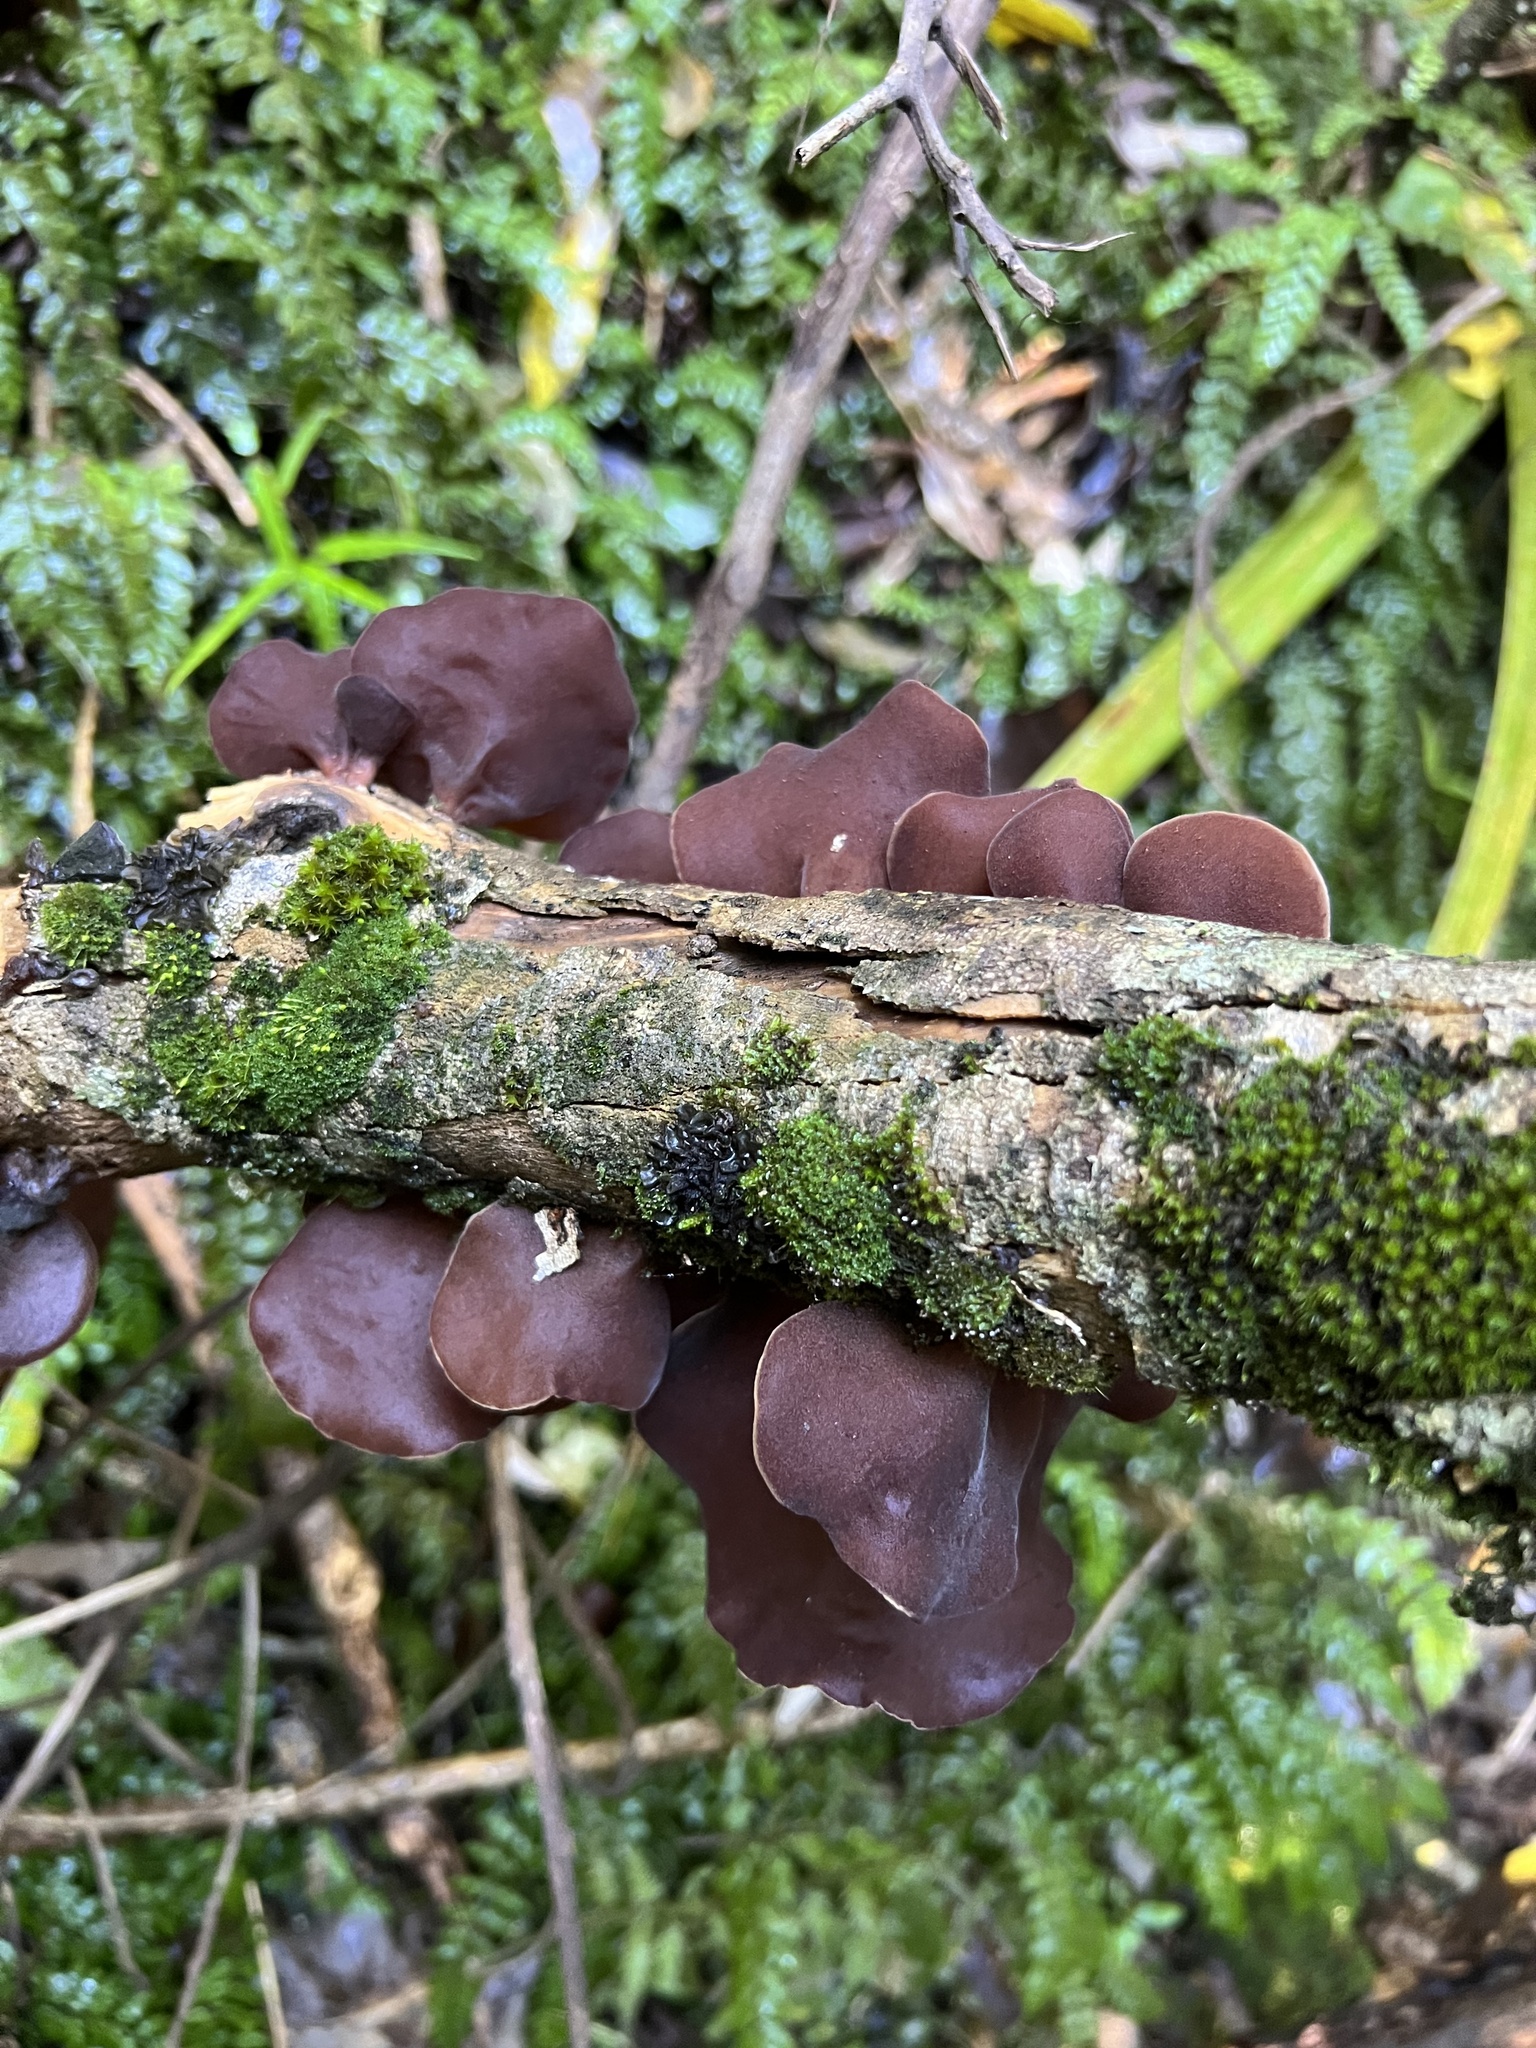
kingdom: Fungi
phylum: Basidiomycota
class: Agaricomycetes
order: Auriculariales
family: Auriculariaceae
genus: Auricularia
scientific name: Auricularia cornea
